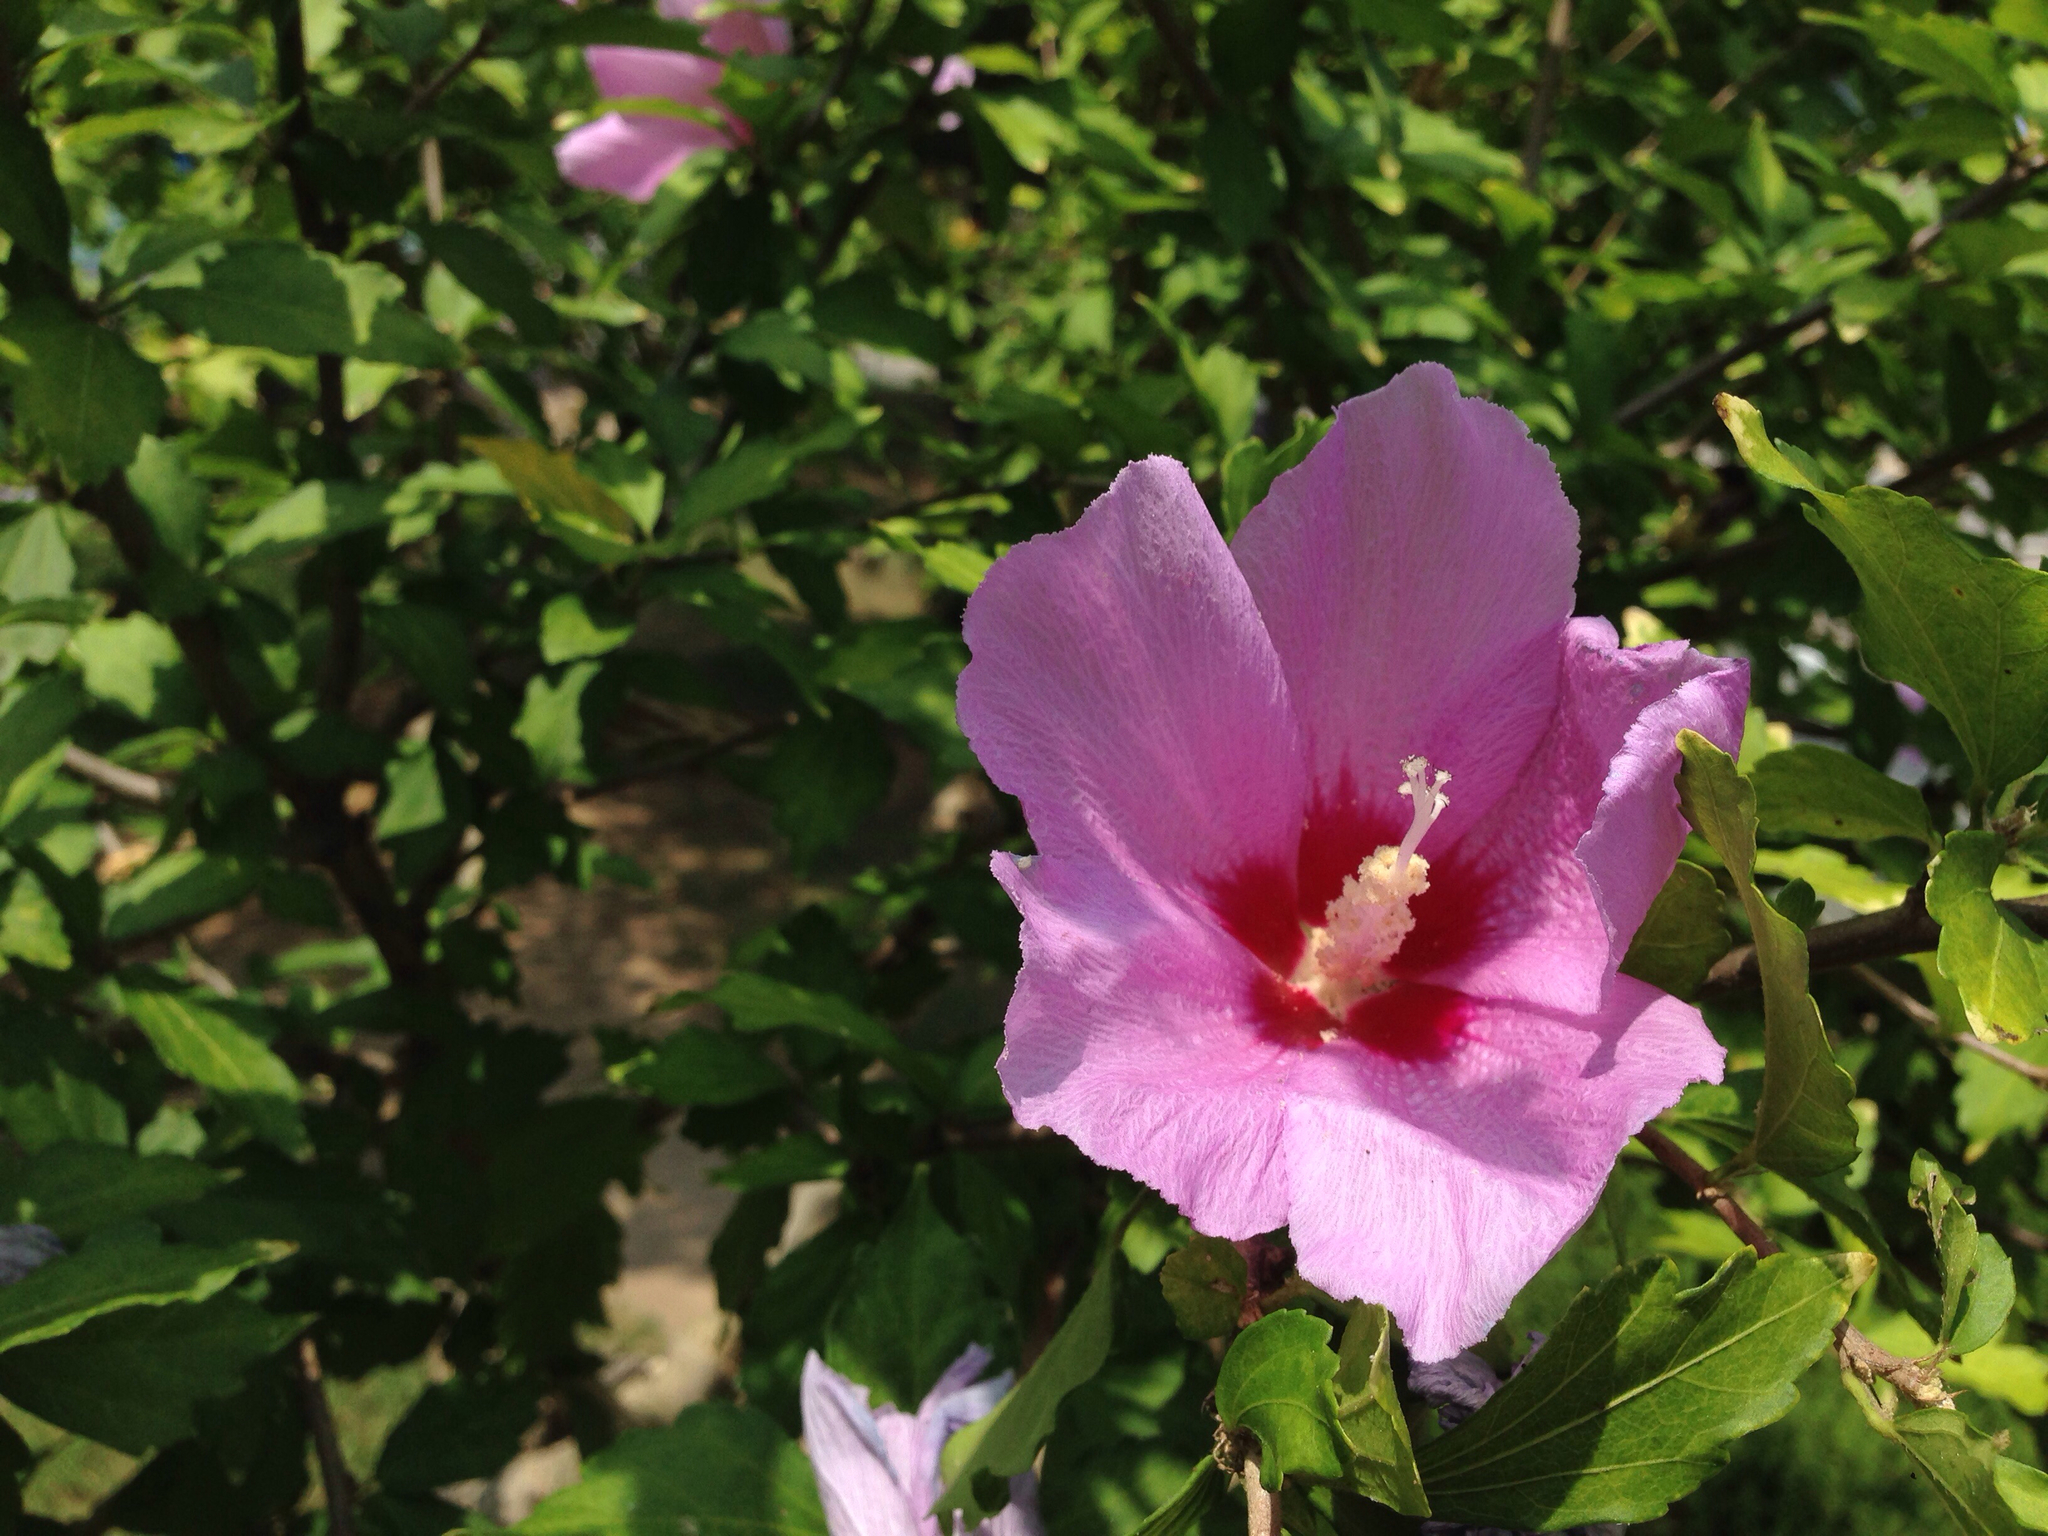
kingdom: Plantae
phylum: Tracheophyta
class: Magnoliopsida
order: Malvales
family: Malvaceae
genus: Hibiscus
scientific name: Hibiscus syriacus
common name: Syrian ketmia
